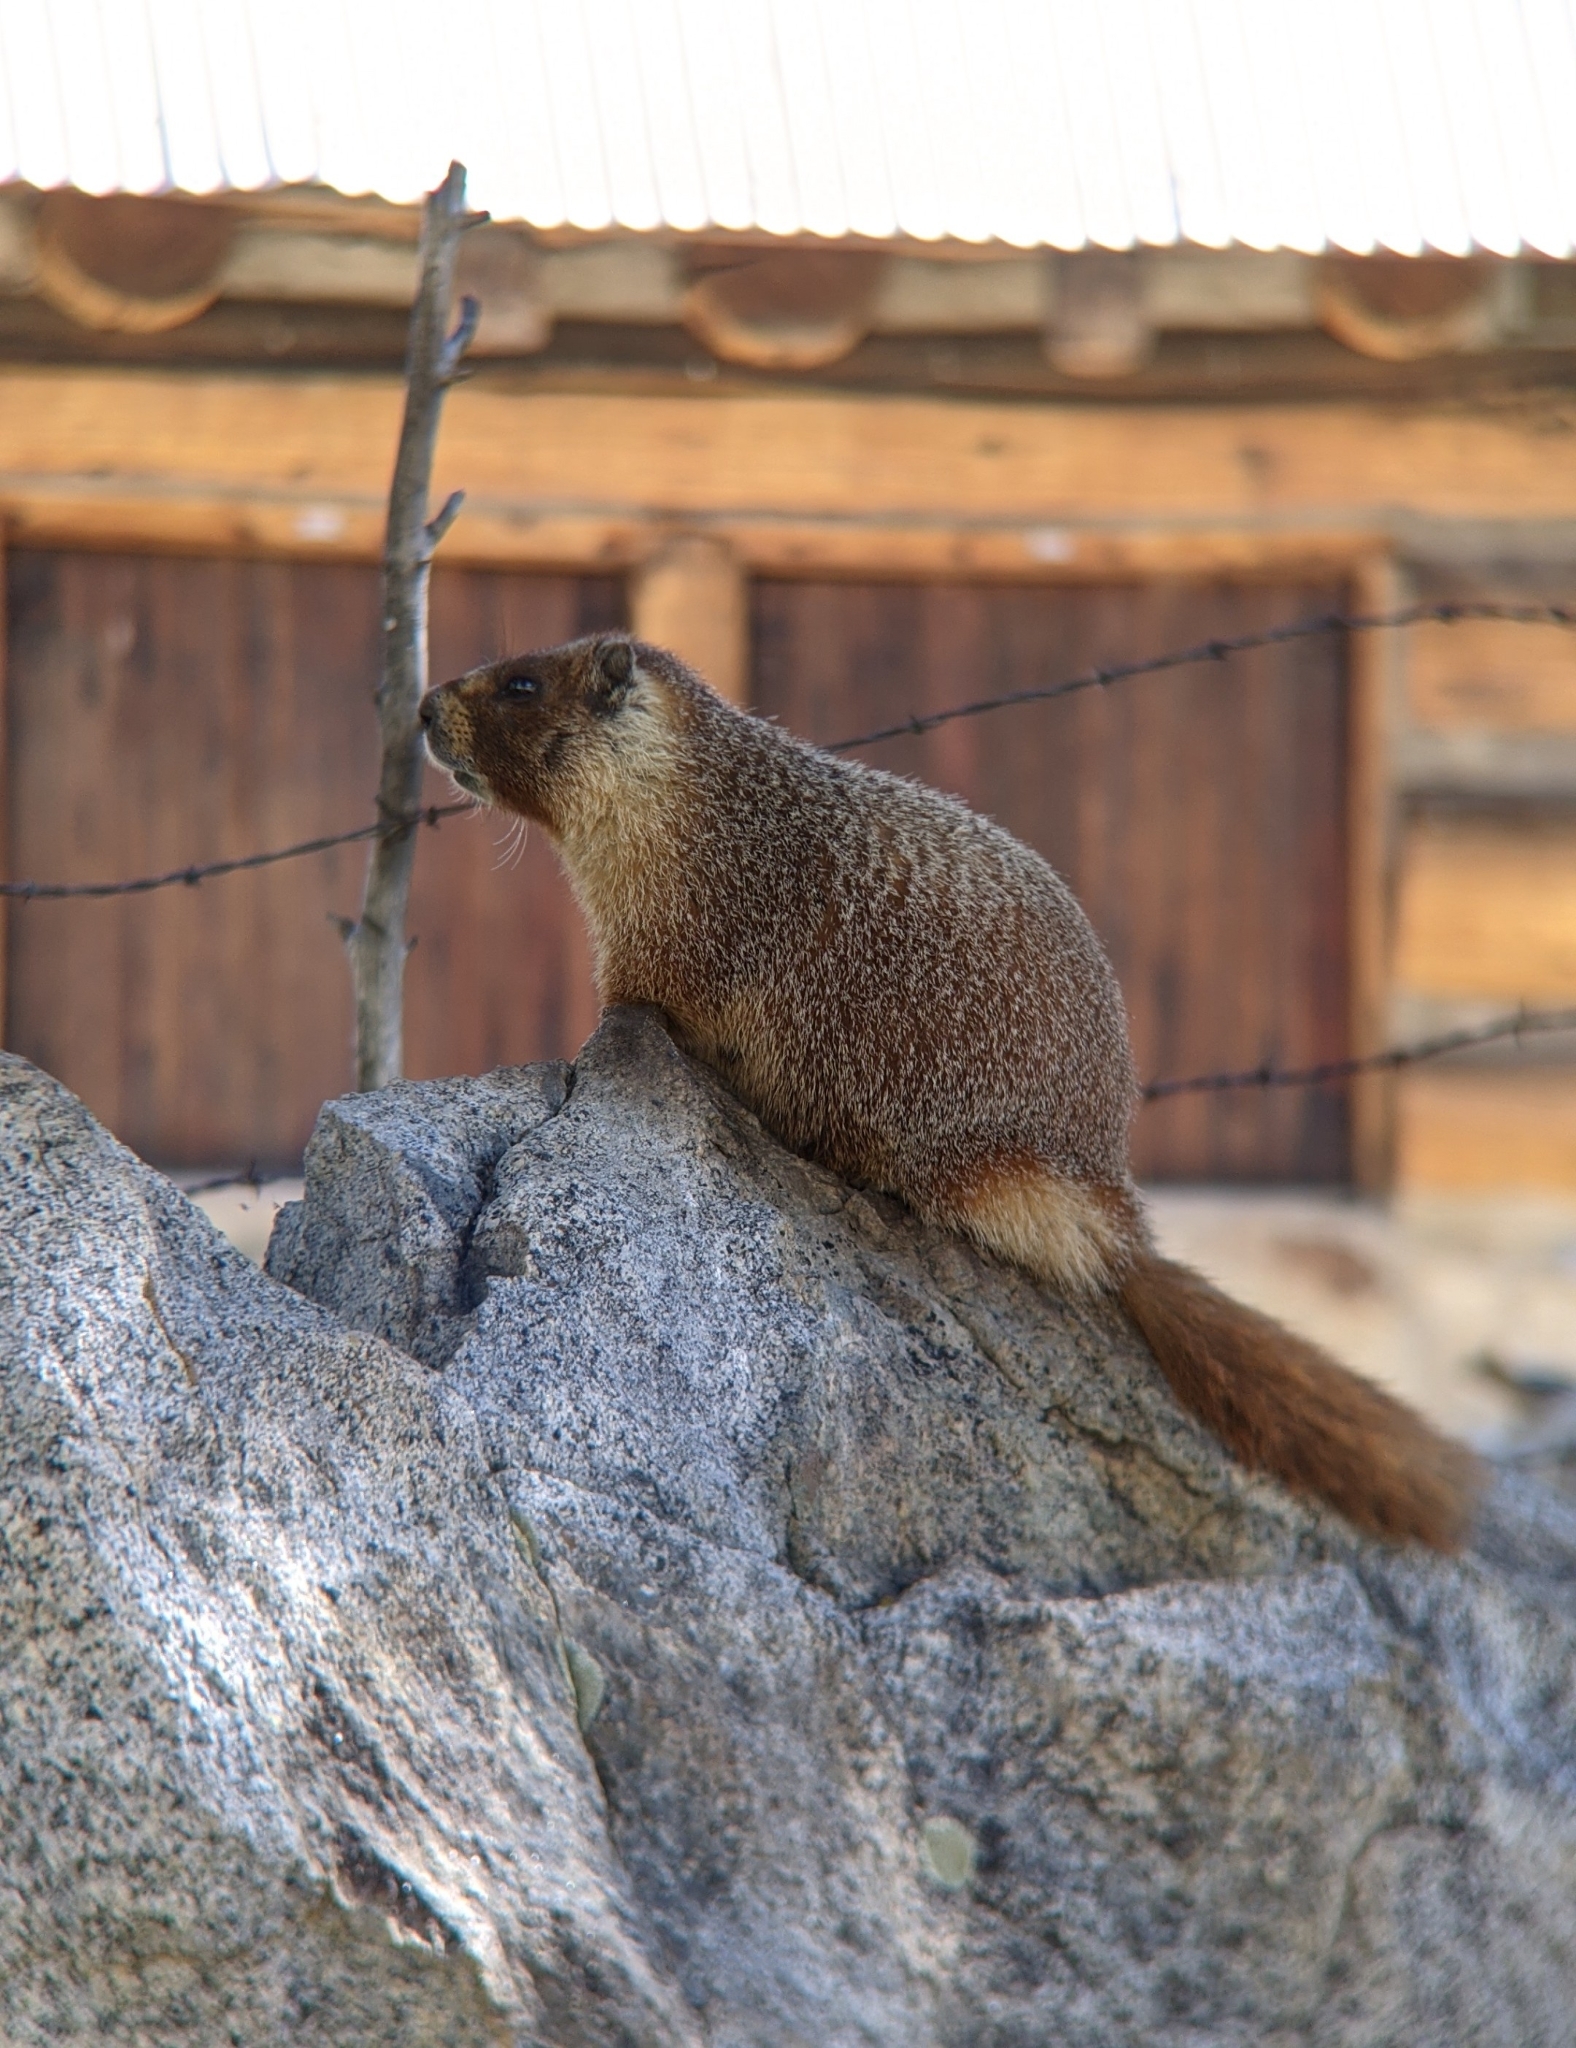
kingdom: Animalia
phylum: Chordata
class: Mammalia
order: Rodentia
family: Sciuridae
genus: Marmota
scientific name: Marmota flaviventris
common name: Yellow-bellied marmot
